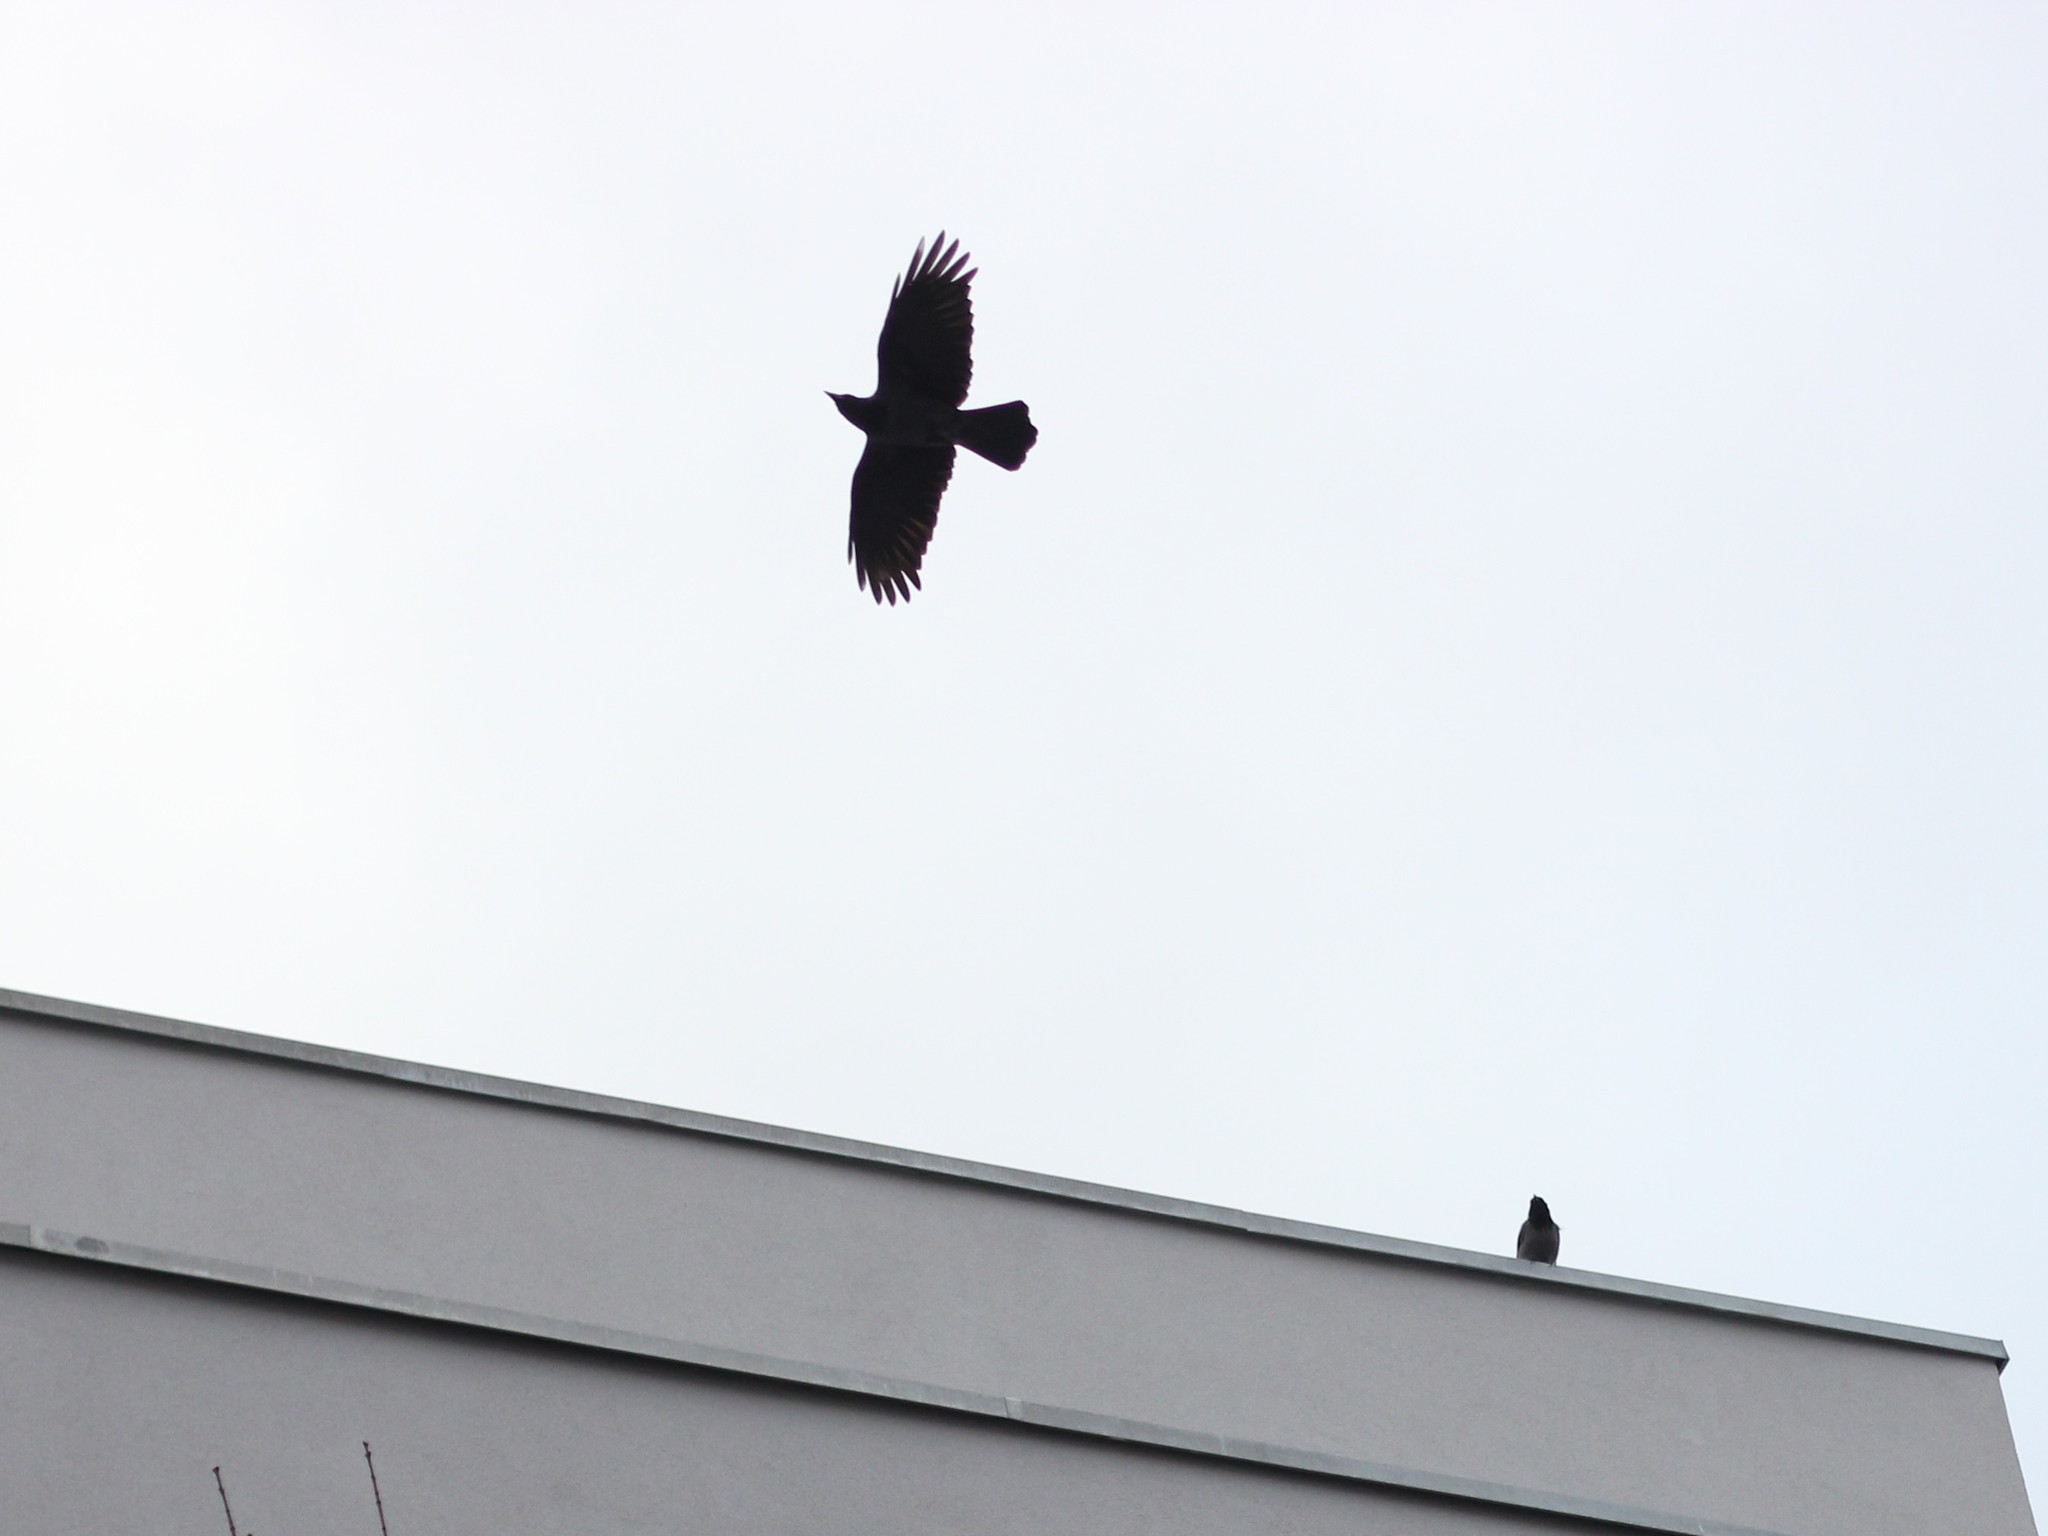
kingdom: Animalia
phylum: Chordata
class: Aves
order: Passeriformes
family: Corvidae
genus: Corvus
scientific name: Corvus cornix
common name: Hooded crow
